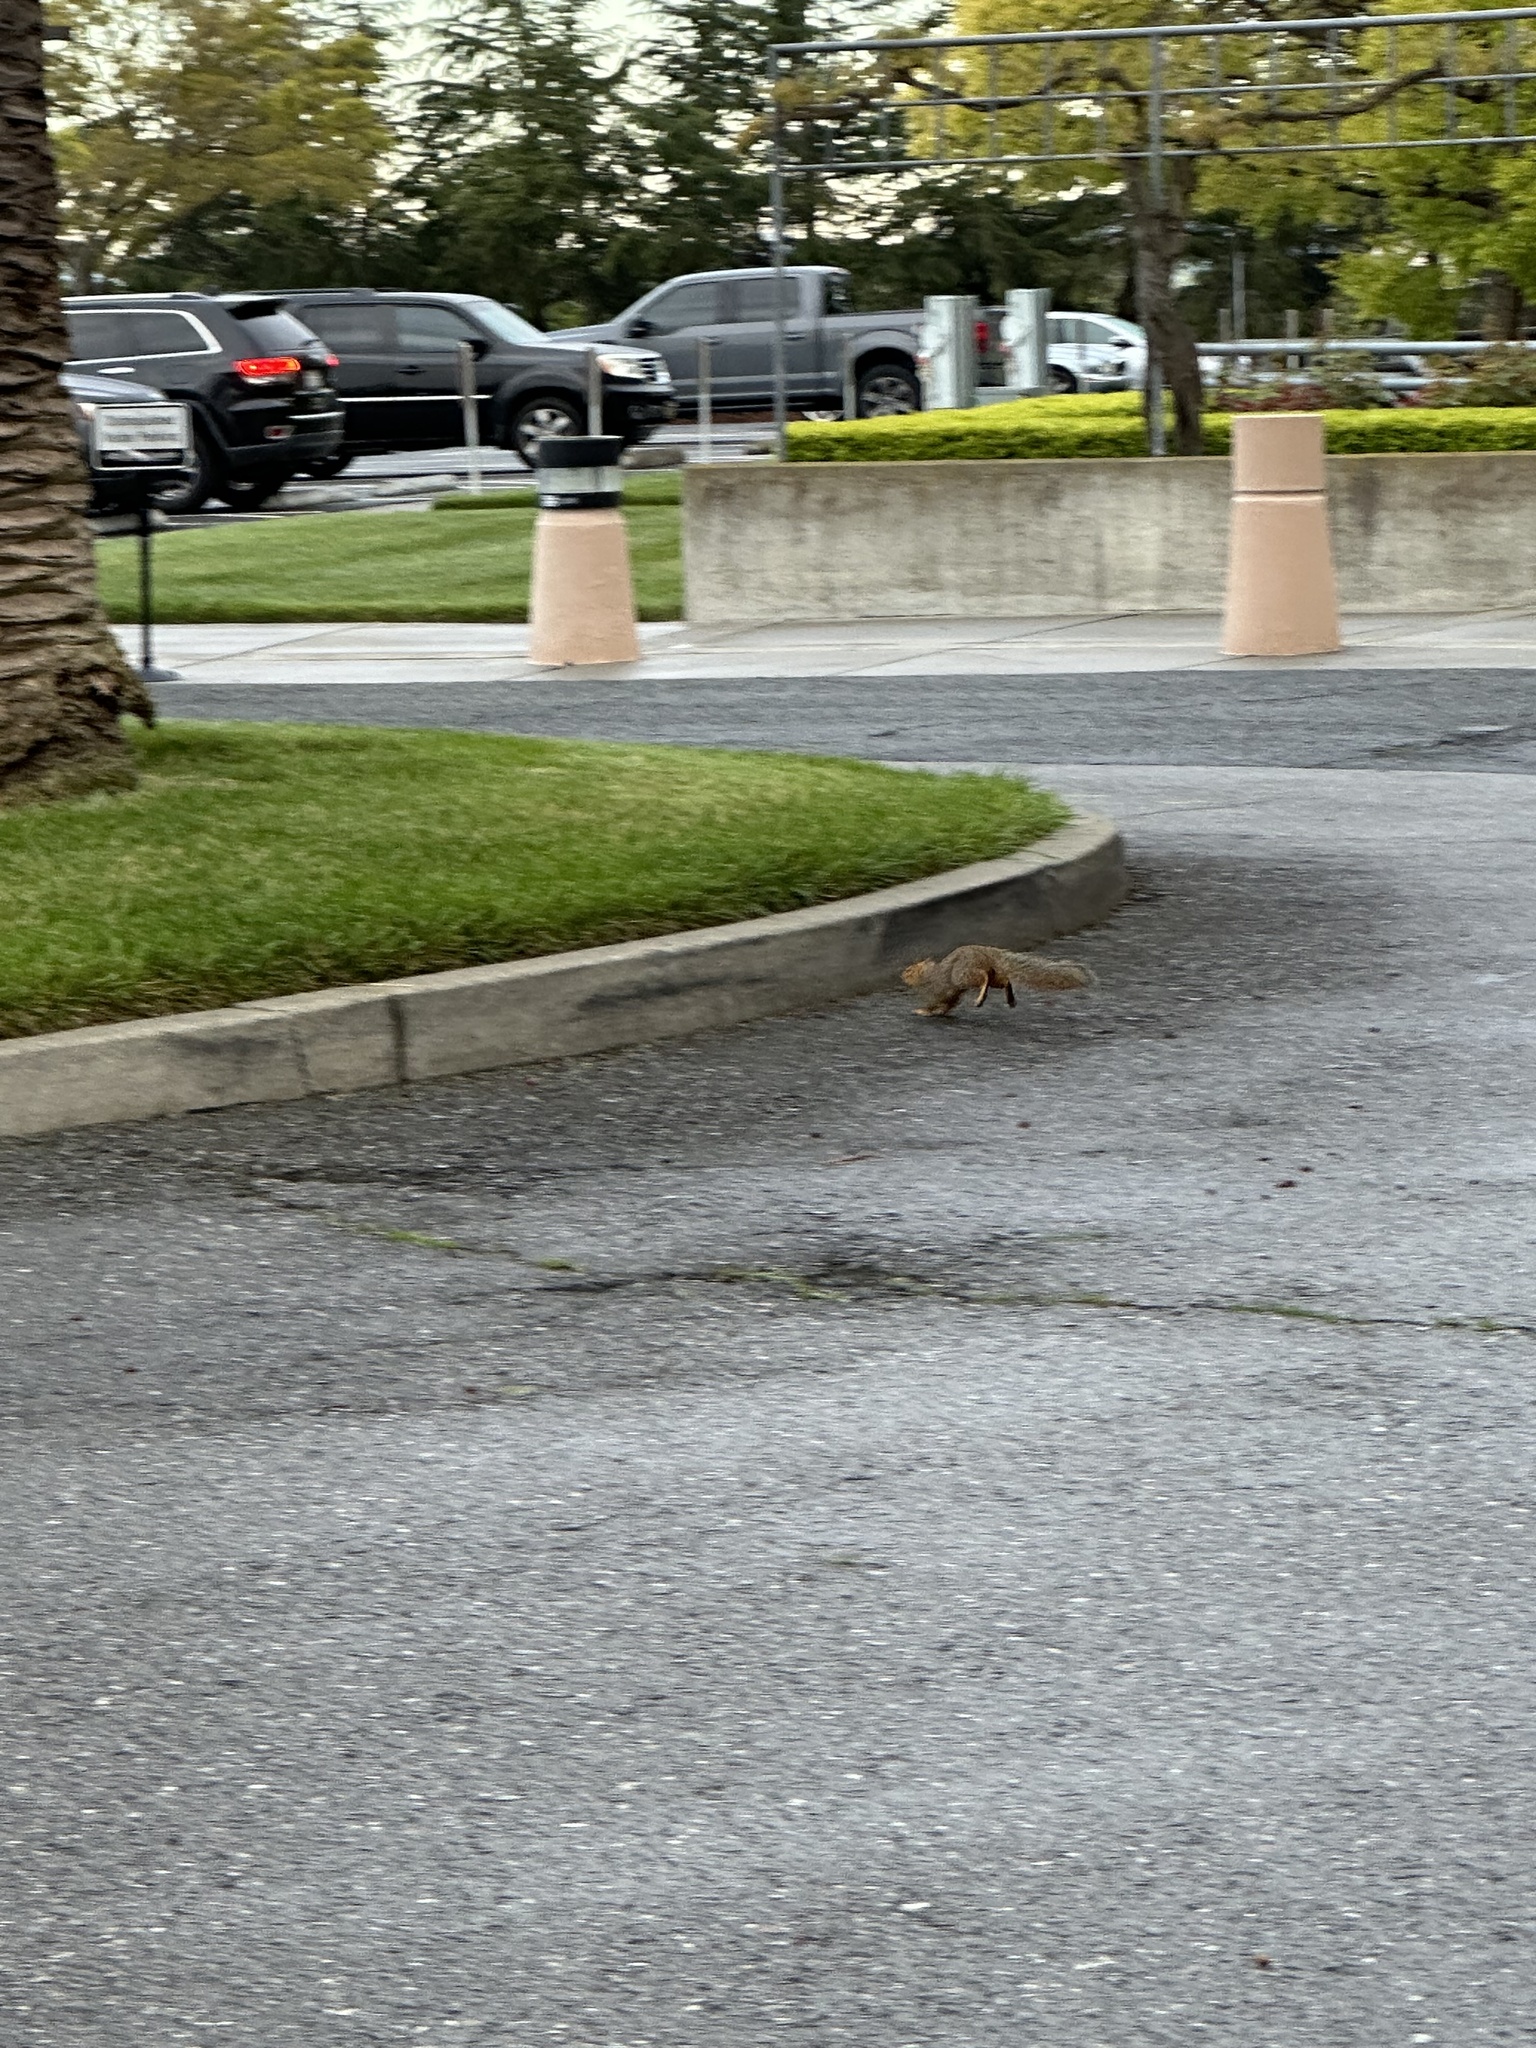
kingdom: Animalia
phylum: Chordata
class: Mammalia
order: Rodentia
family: Sciuridae
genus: Sciurus
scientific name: Sciurus niger
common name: Fox squirrel
